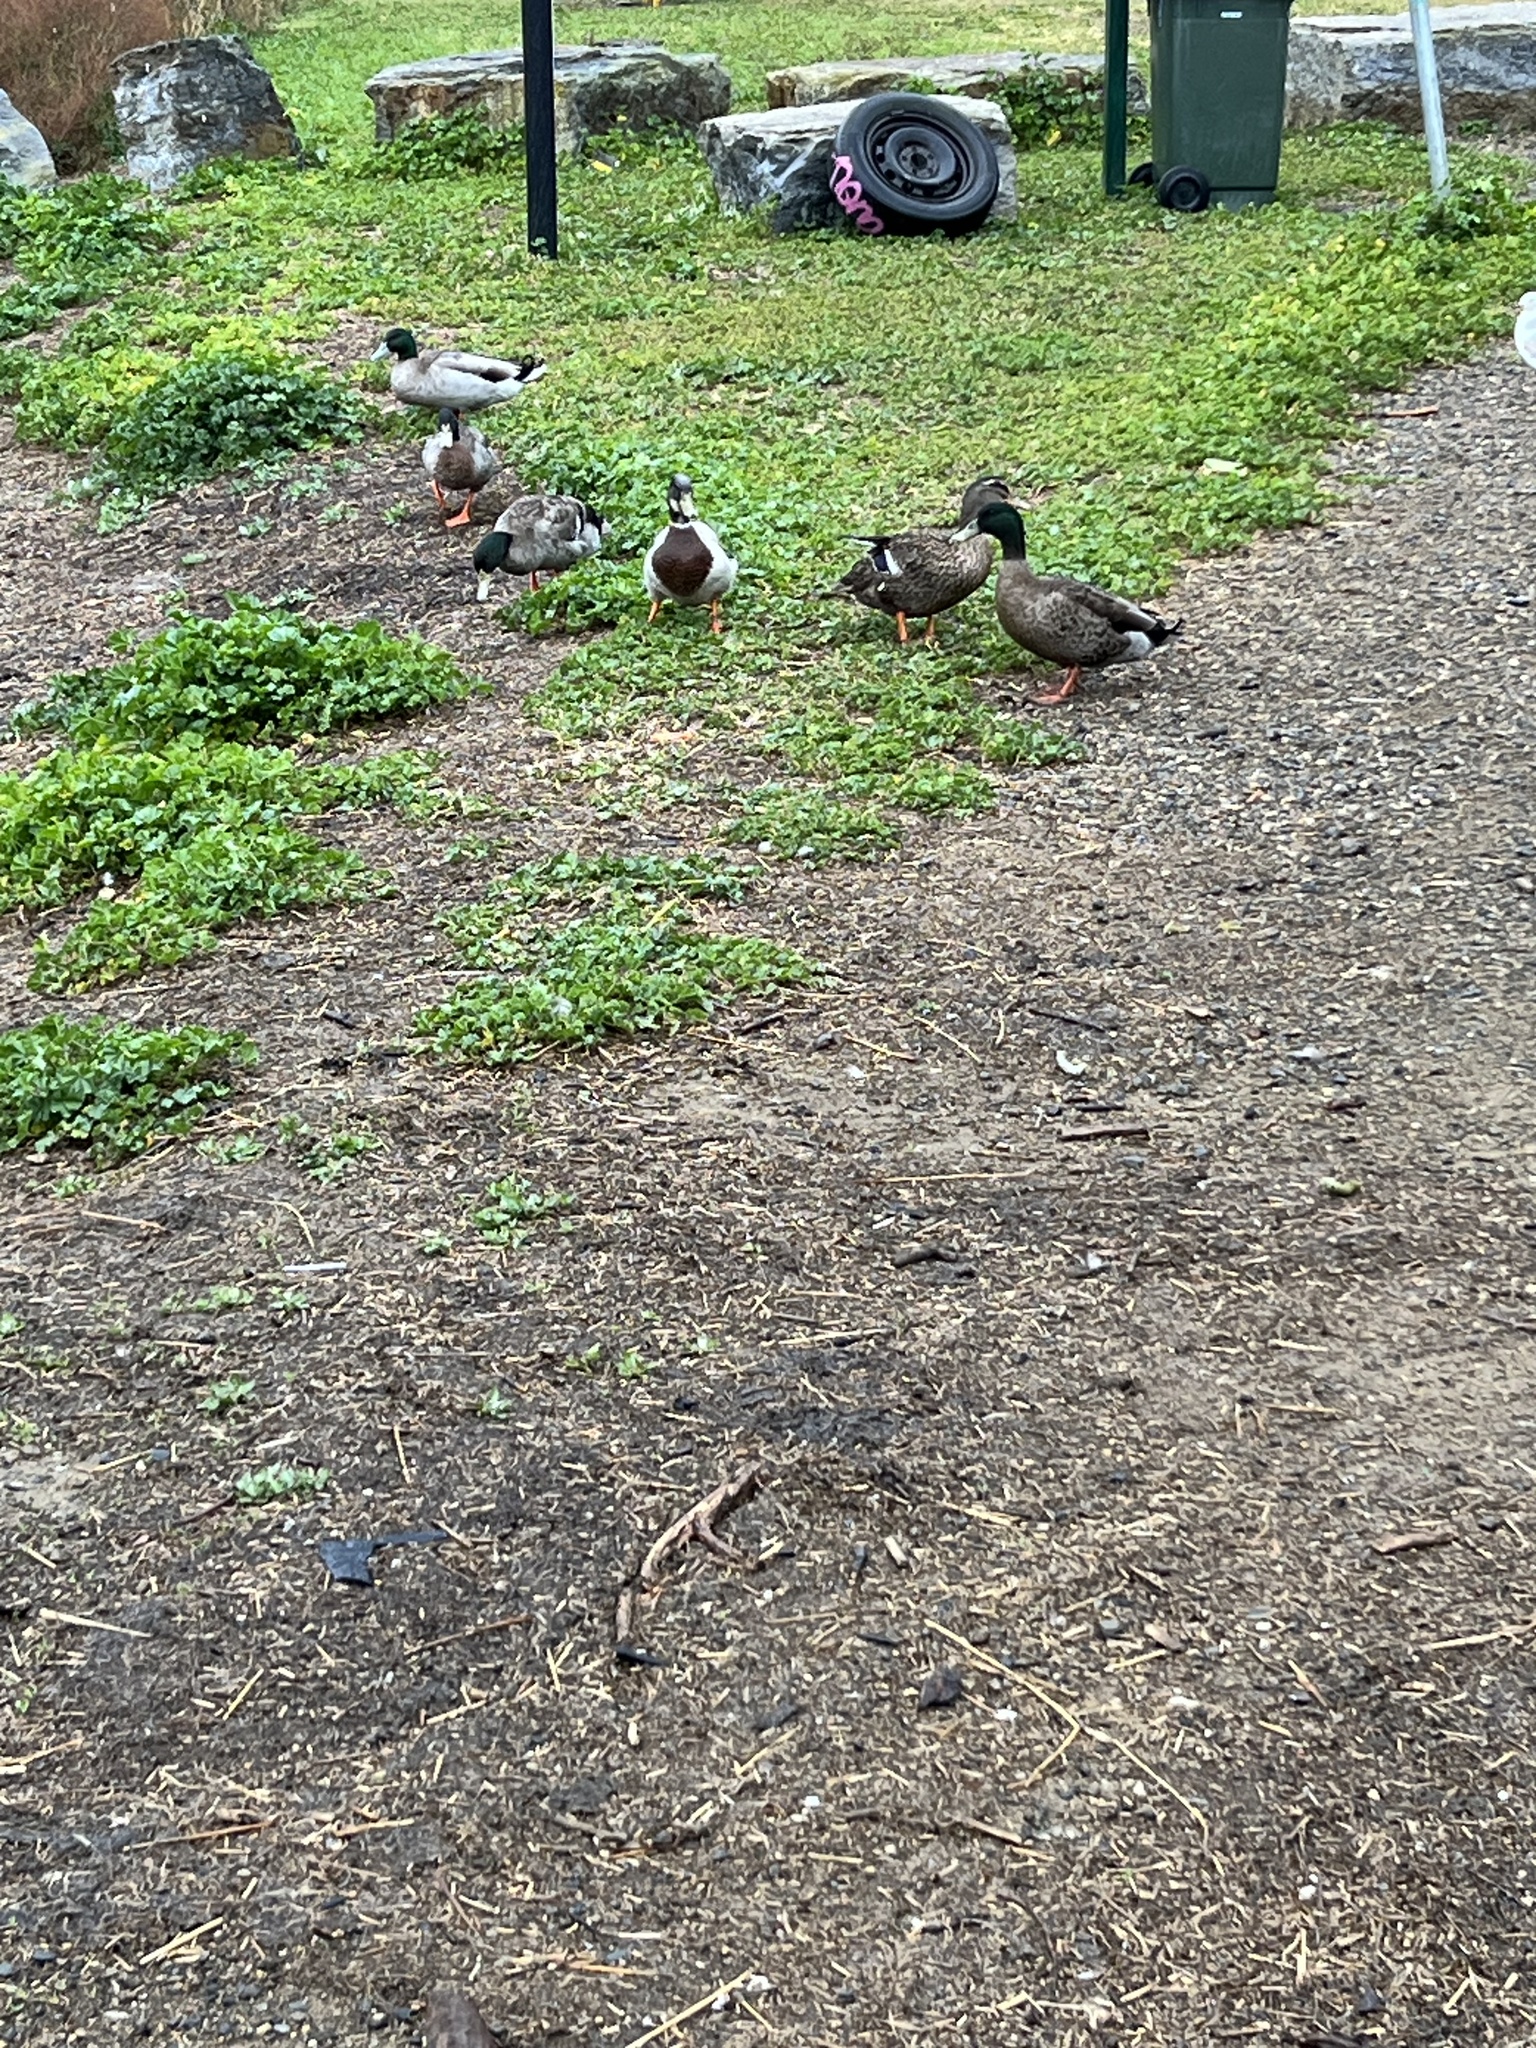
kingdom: Animalia
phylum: Chordata
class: Aves
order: Anseriformes
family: Anatidae
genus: Anas
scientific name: Anas platyrhynchos
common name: Mallard
